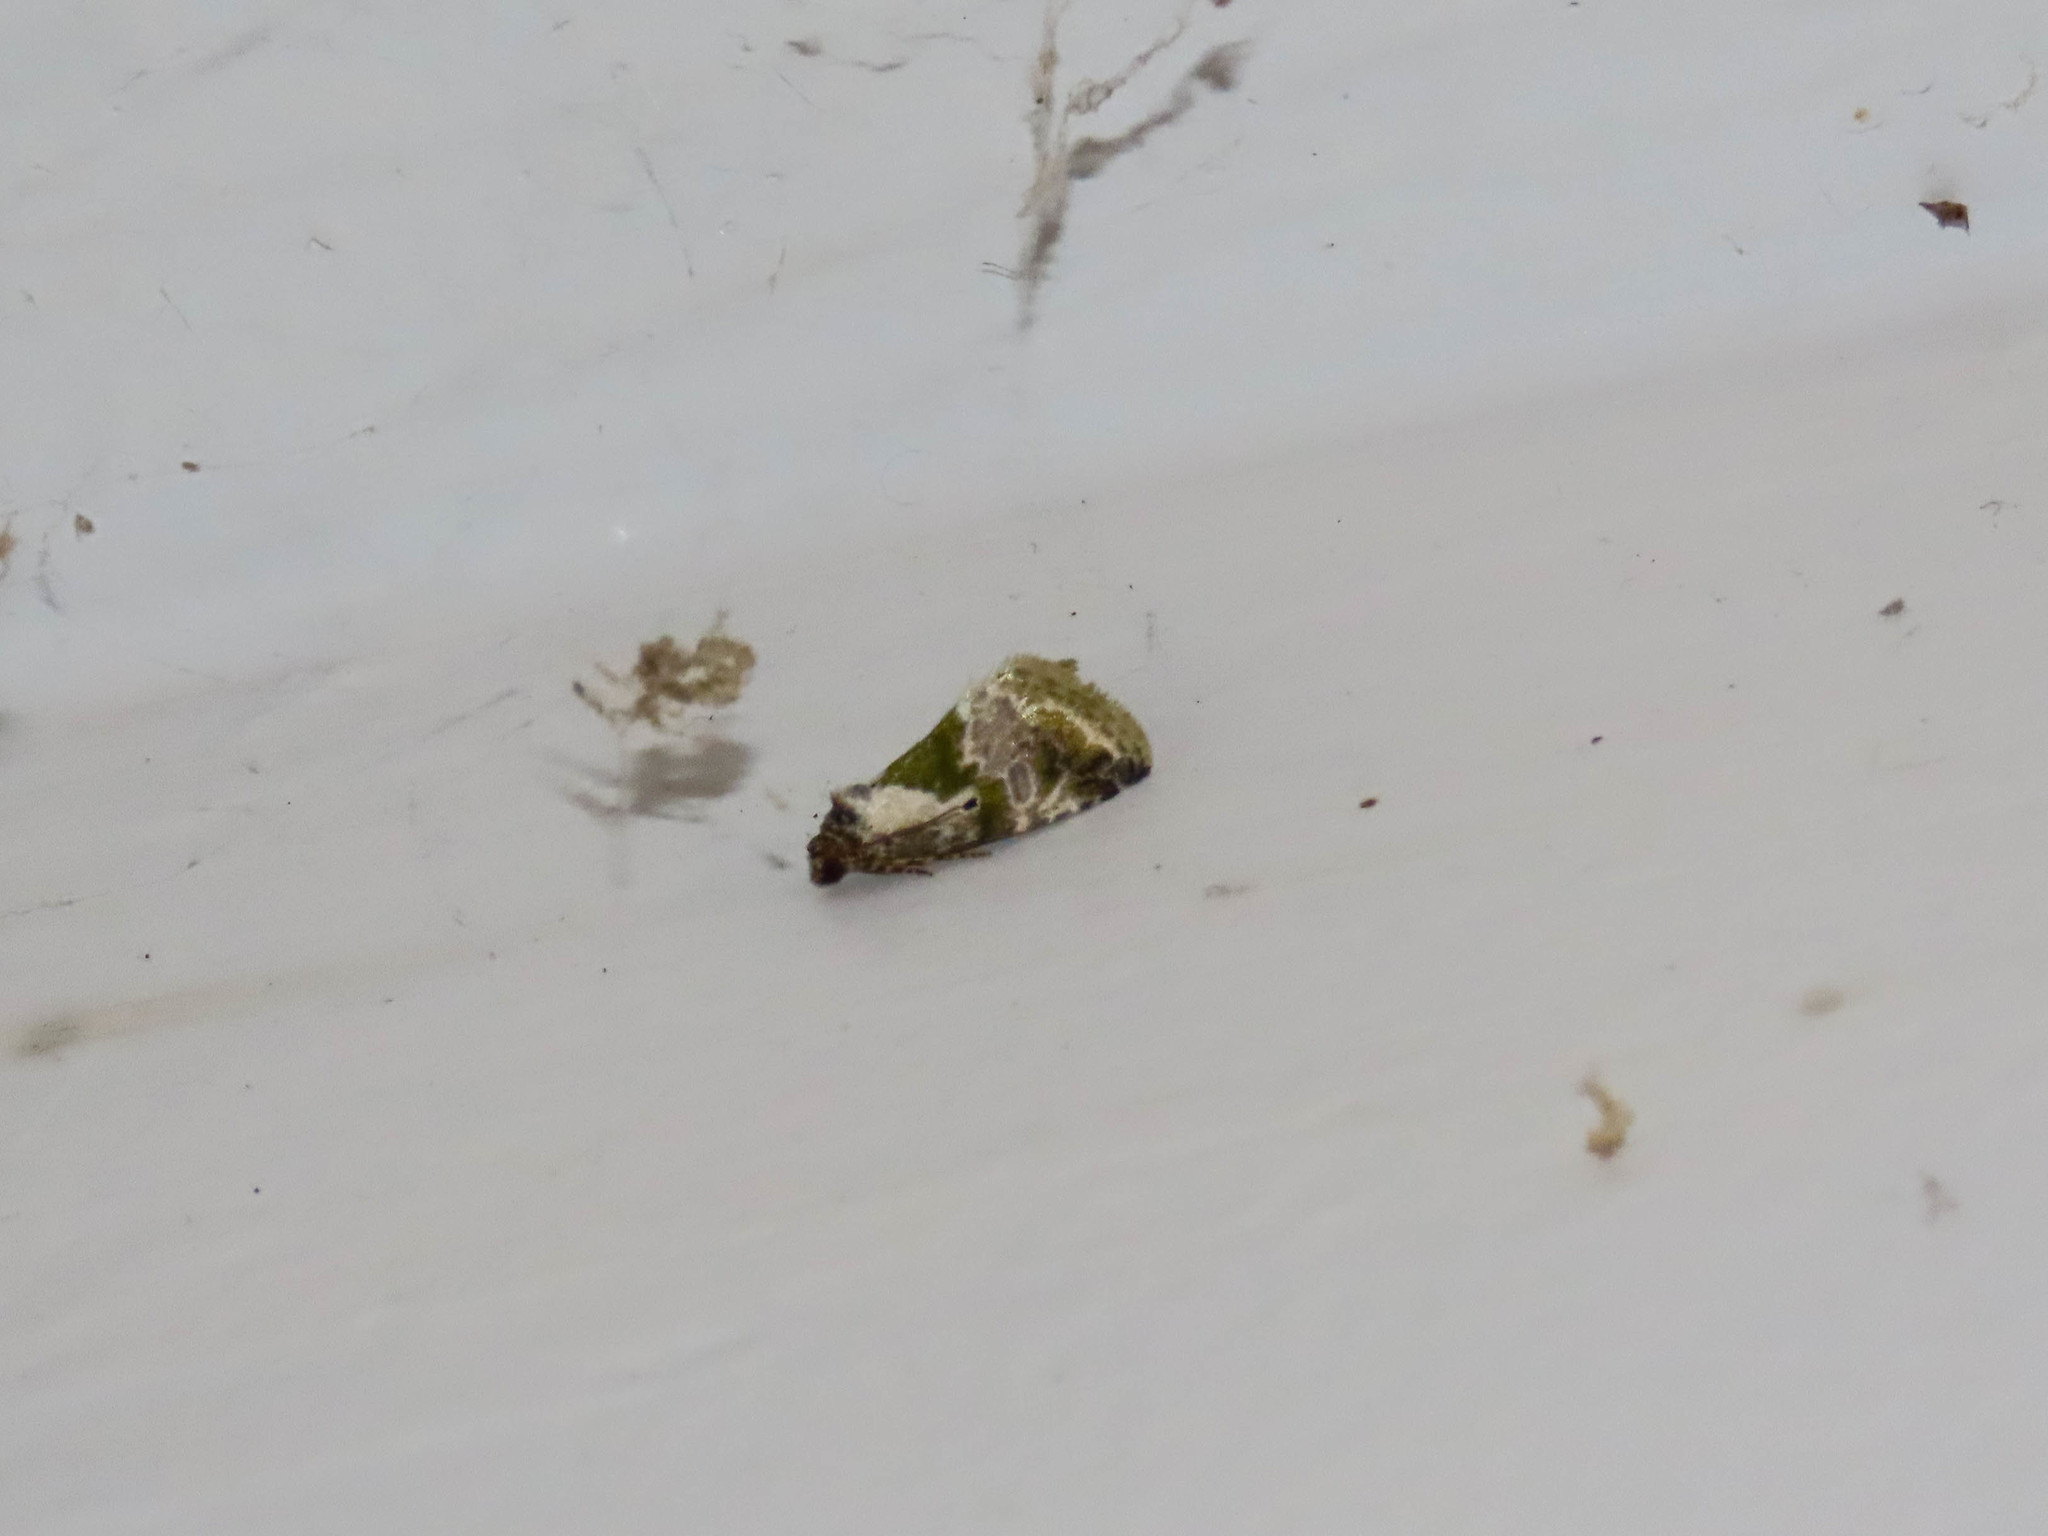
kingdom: Animalia
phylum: Arthropoda
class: Insecta
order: Lepidoptera
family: Noctuidae
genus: Maliattha
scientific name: Maliattha synochitis
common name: Black-dotted glyph
